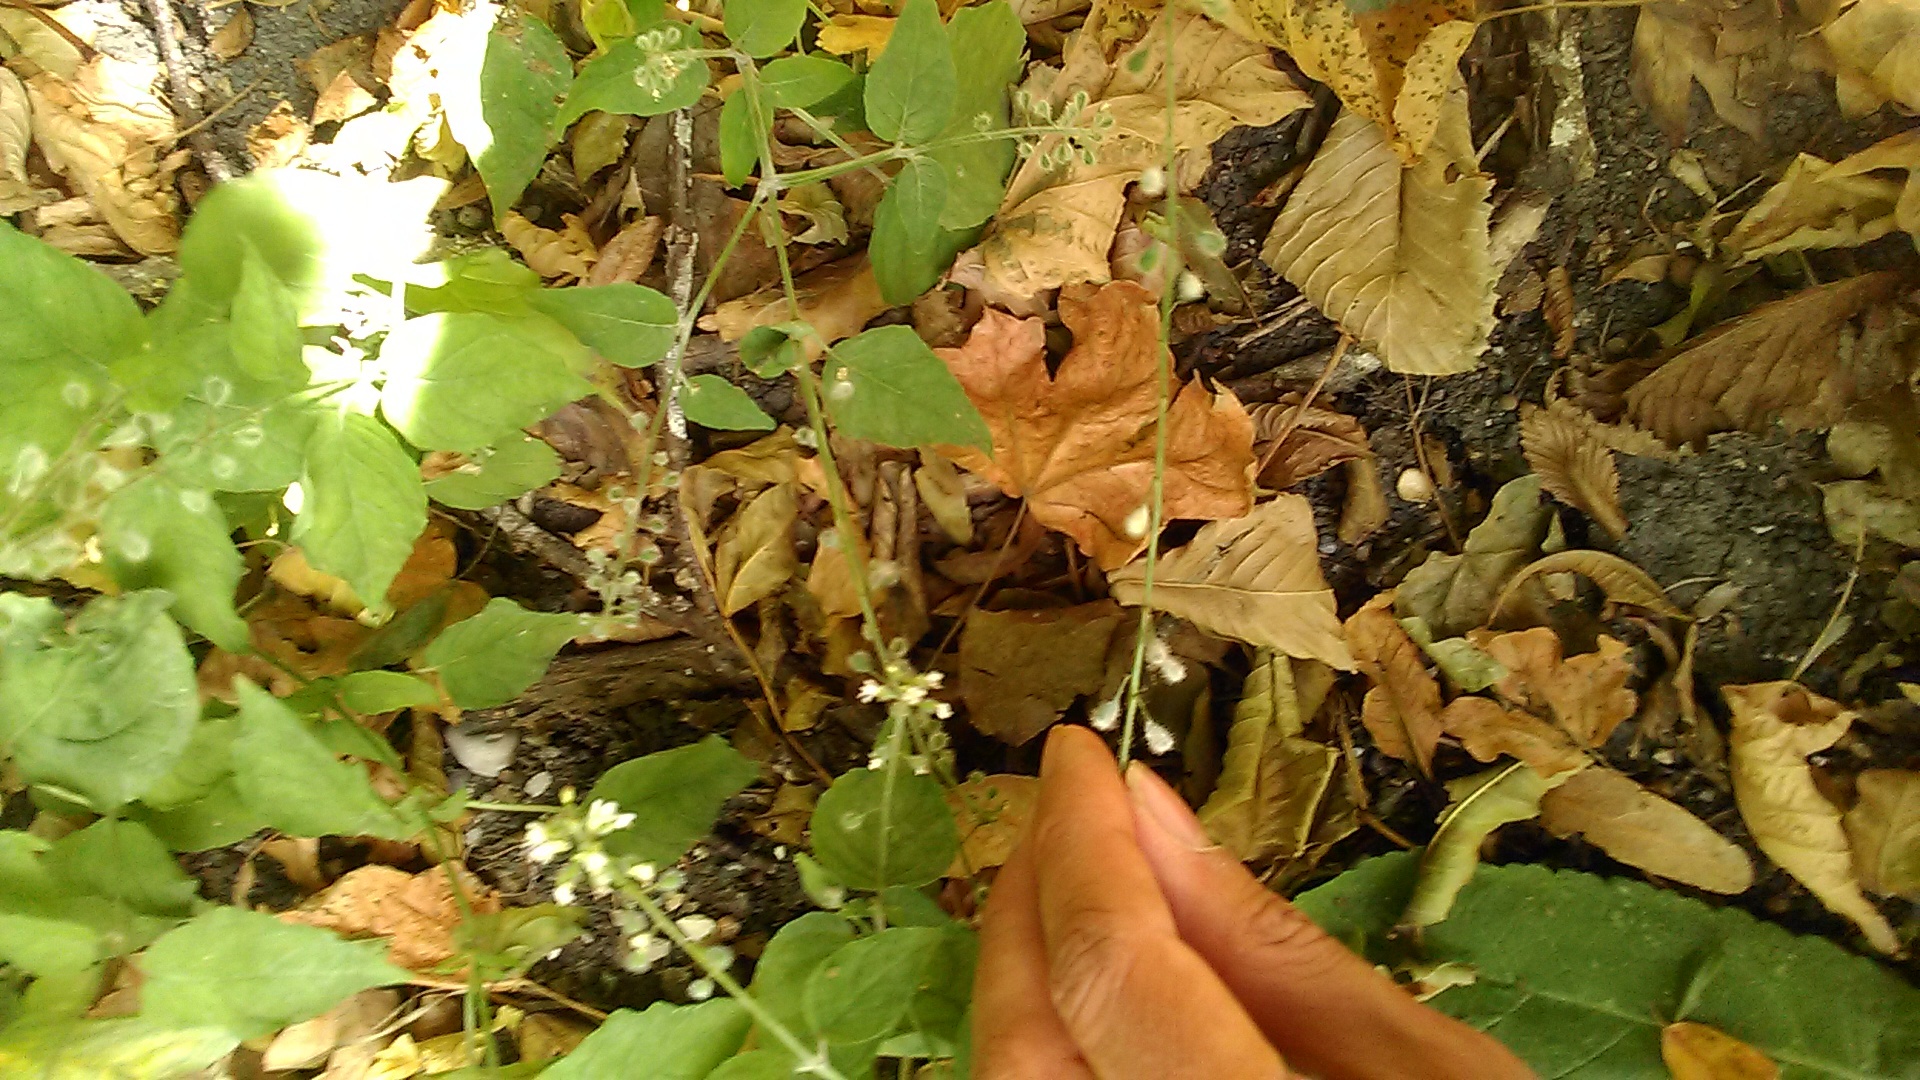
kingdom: Plantae
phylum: Tracheophyta
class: Magnoliopsida
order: Myrtales
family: Onagraceae
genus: Circaea
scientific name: Circaea lutetiana
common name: Enchanter's-nightshade
